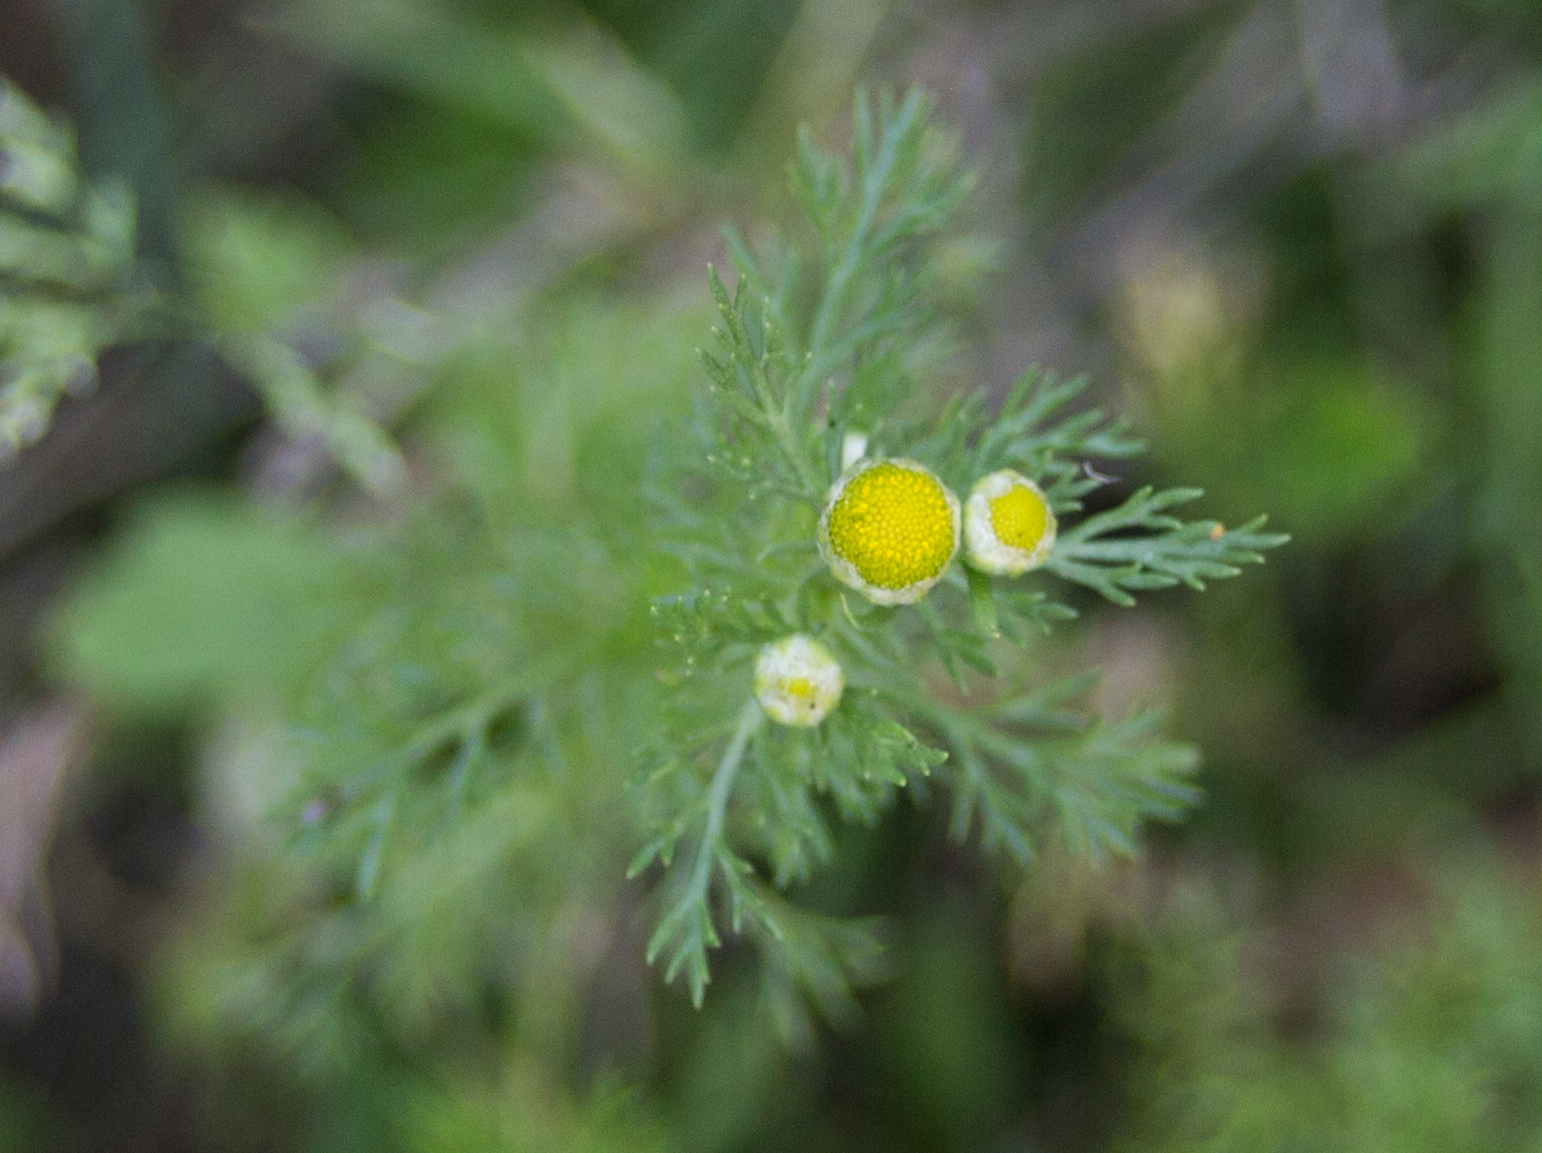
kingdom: Plantae
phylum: Tracheophyta
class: Magnoliopsida
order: Asterales
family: Asteraceae
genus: Matricaria
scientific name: Matricaria discoidea
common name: Disc mayweed
